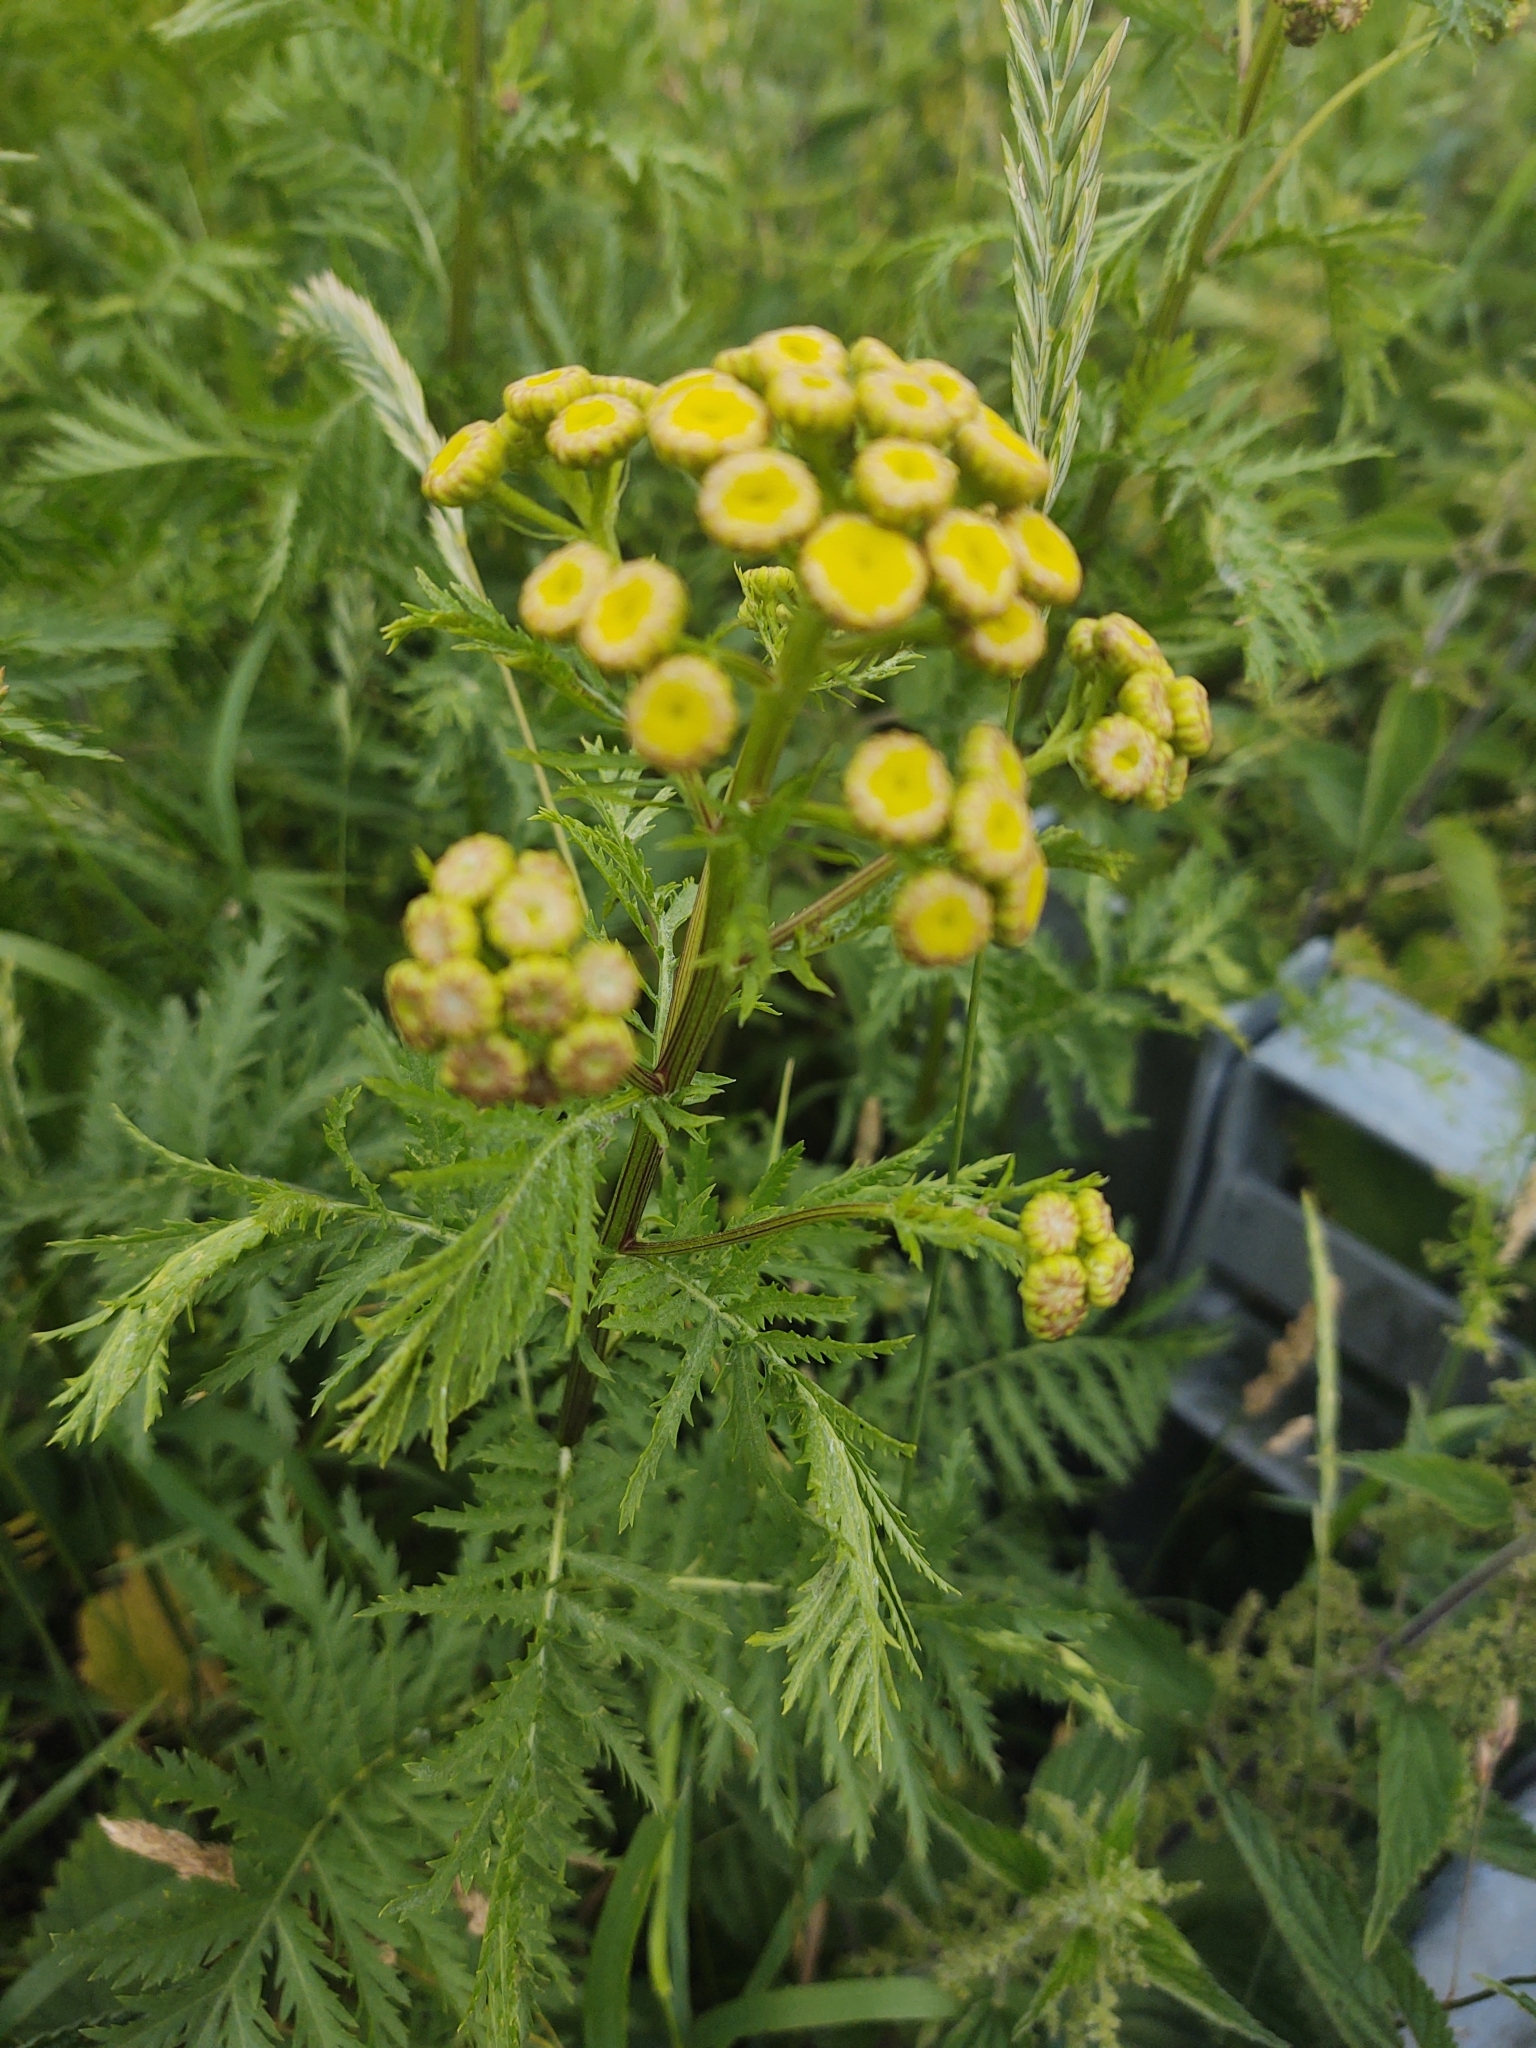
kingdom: Plantae
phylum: Tracheophyta
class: Magnoliopsida
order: Asterales
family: Asteraceae
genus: Tanacetum
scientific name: Tanacetum vulgare
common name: Common tansy
